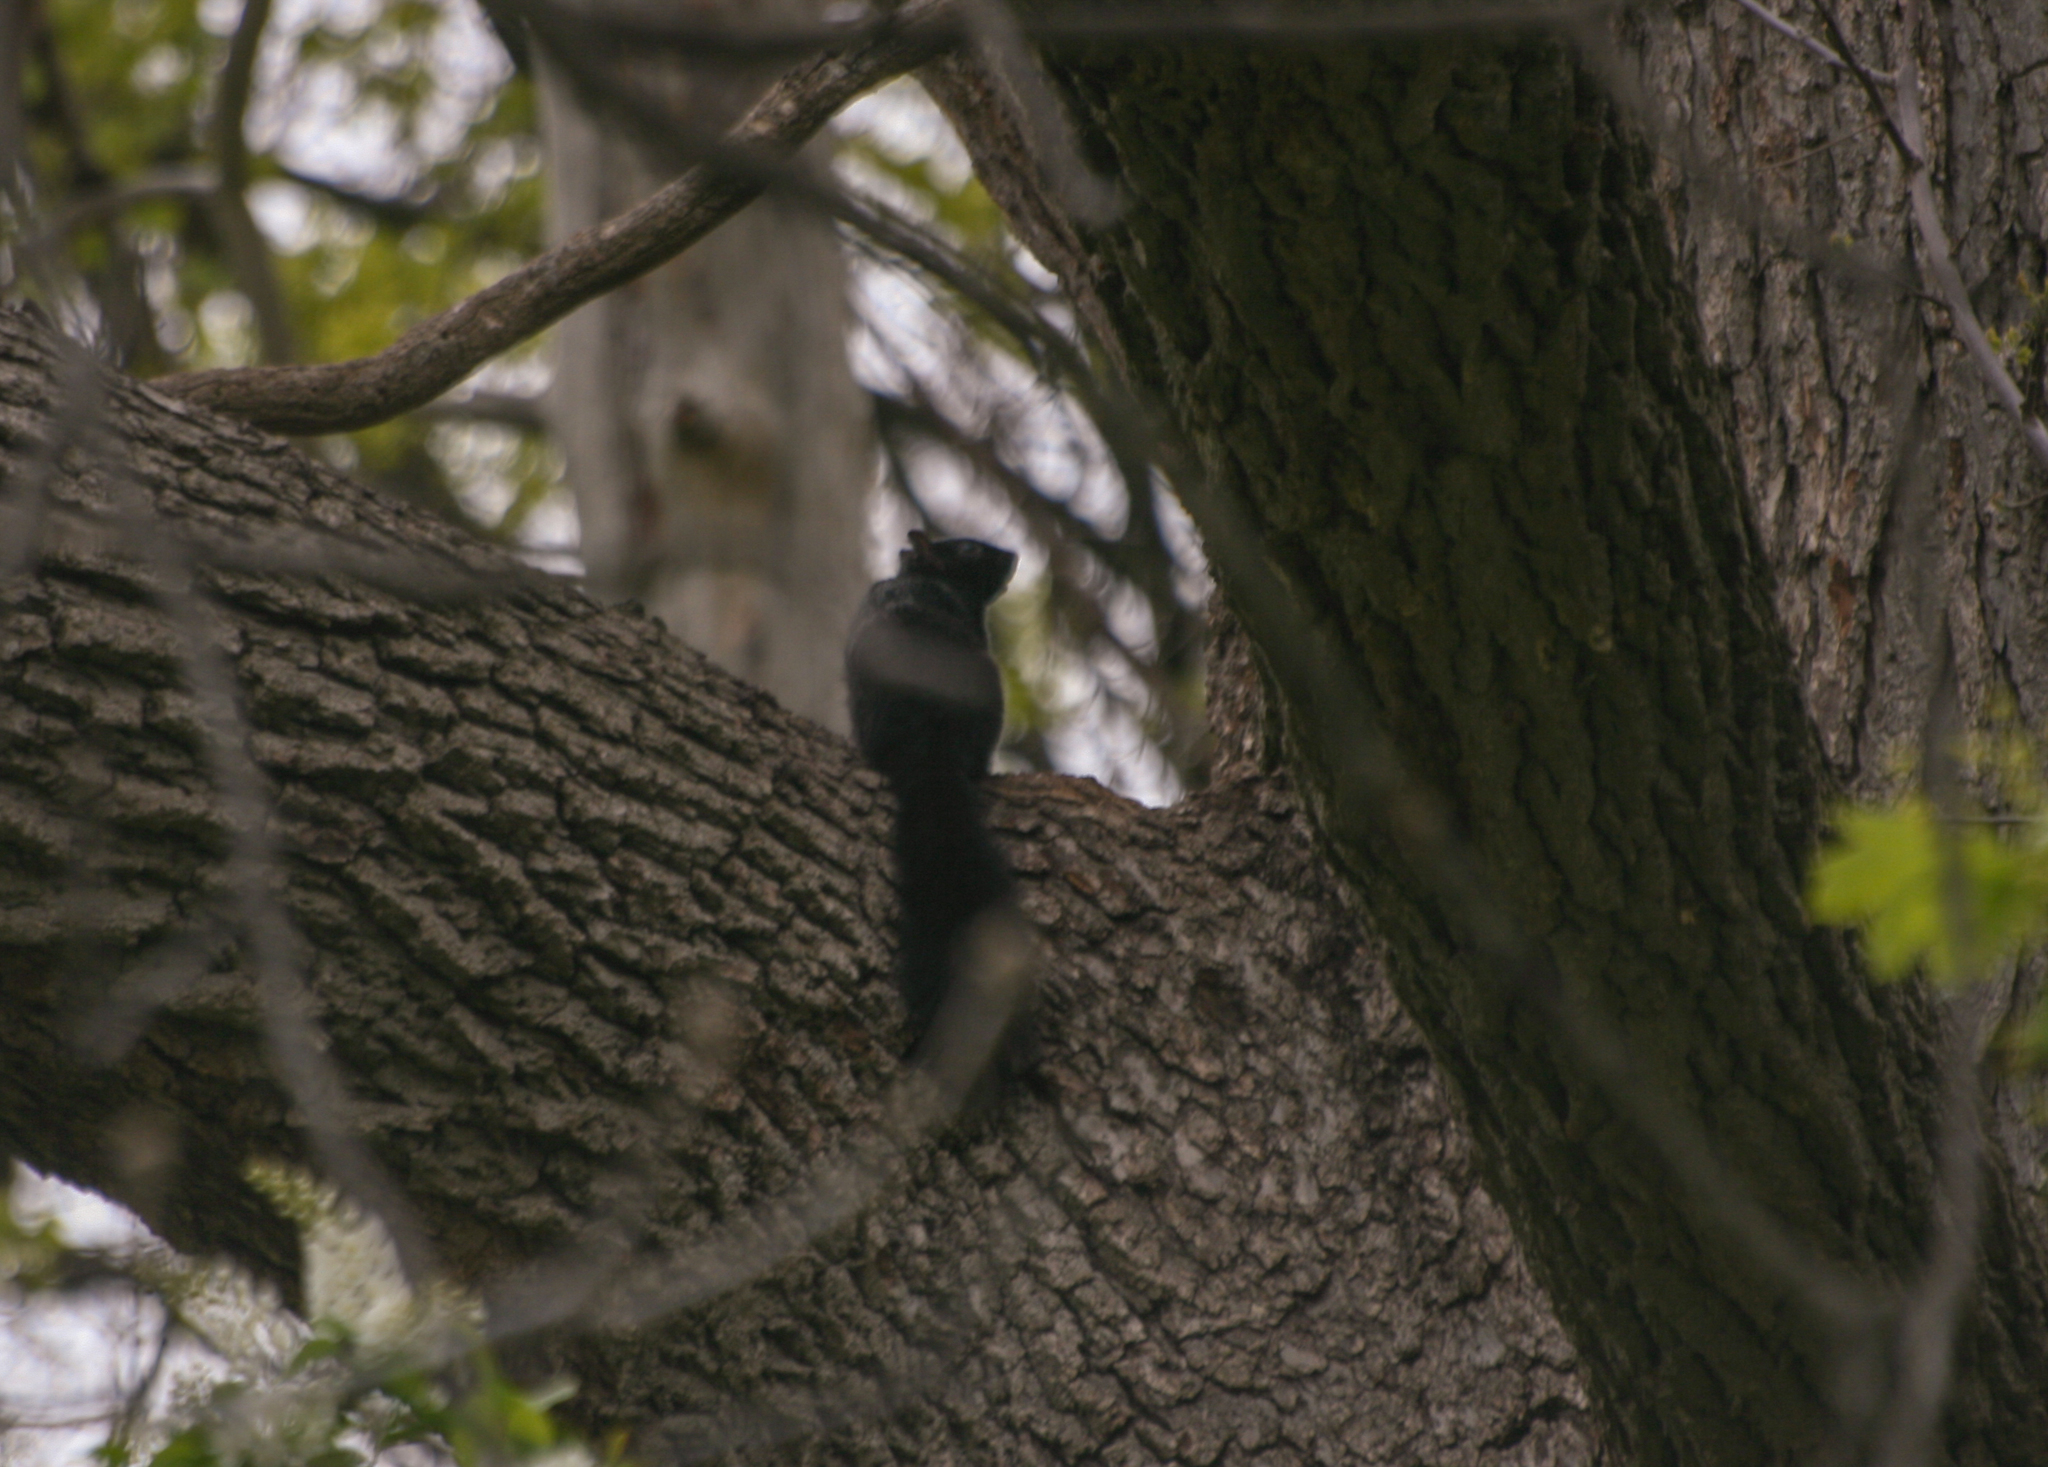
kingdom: Animalia
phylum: Chordata
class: Mammalia
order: Rodentia
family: Sciuridae
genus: Sciurus
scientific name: Sciurus carolinensis
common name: Eastern gray squirrel
